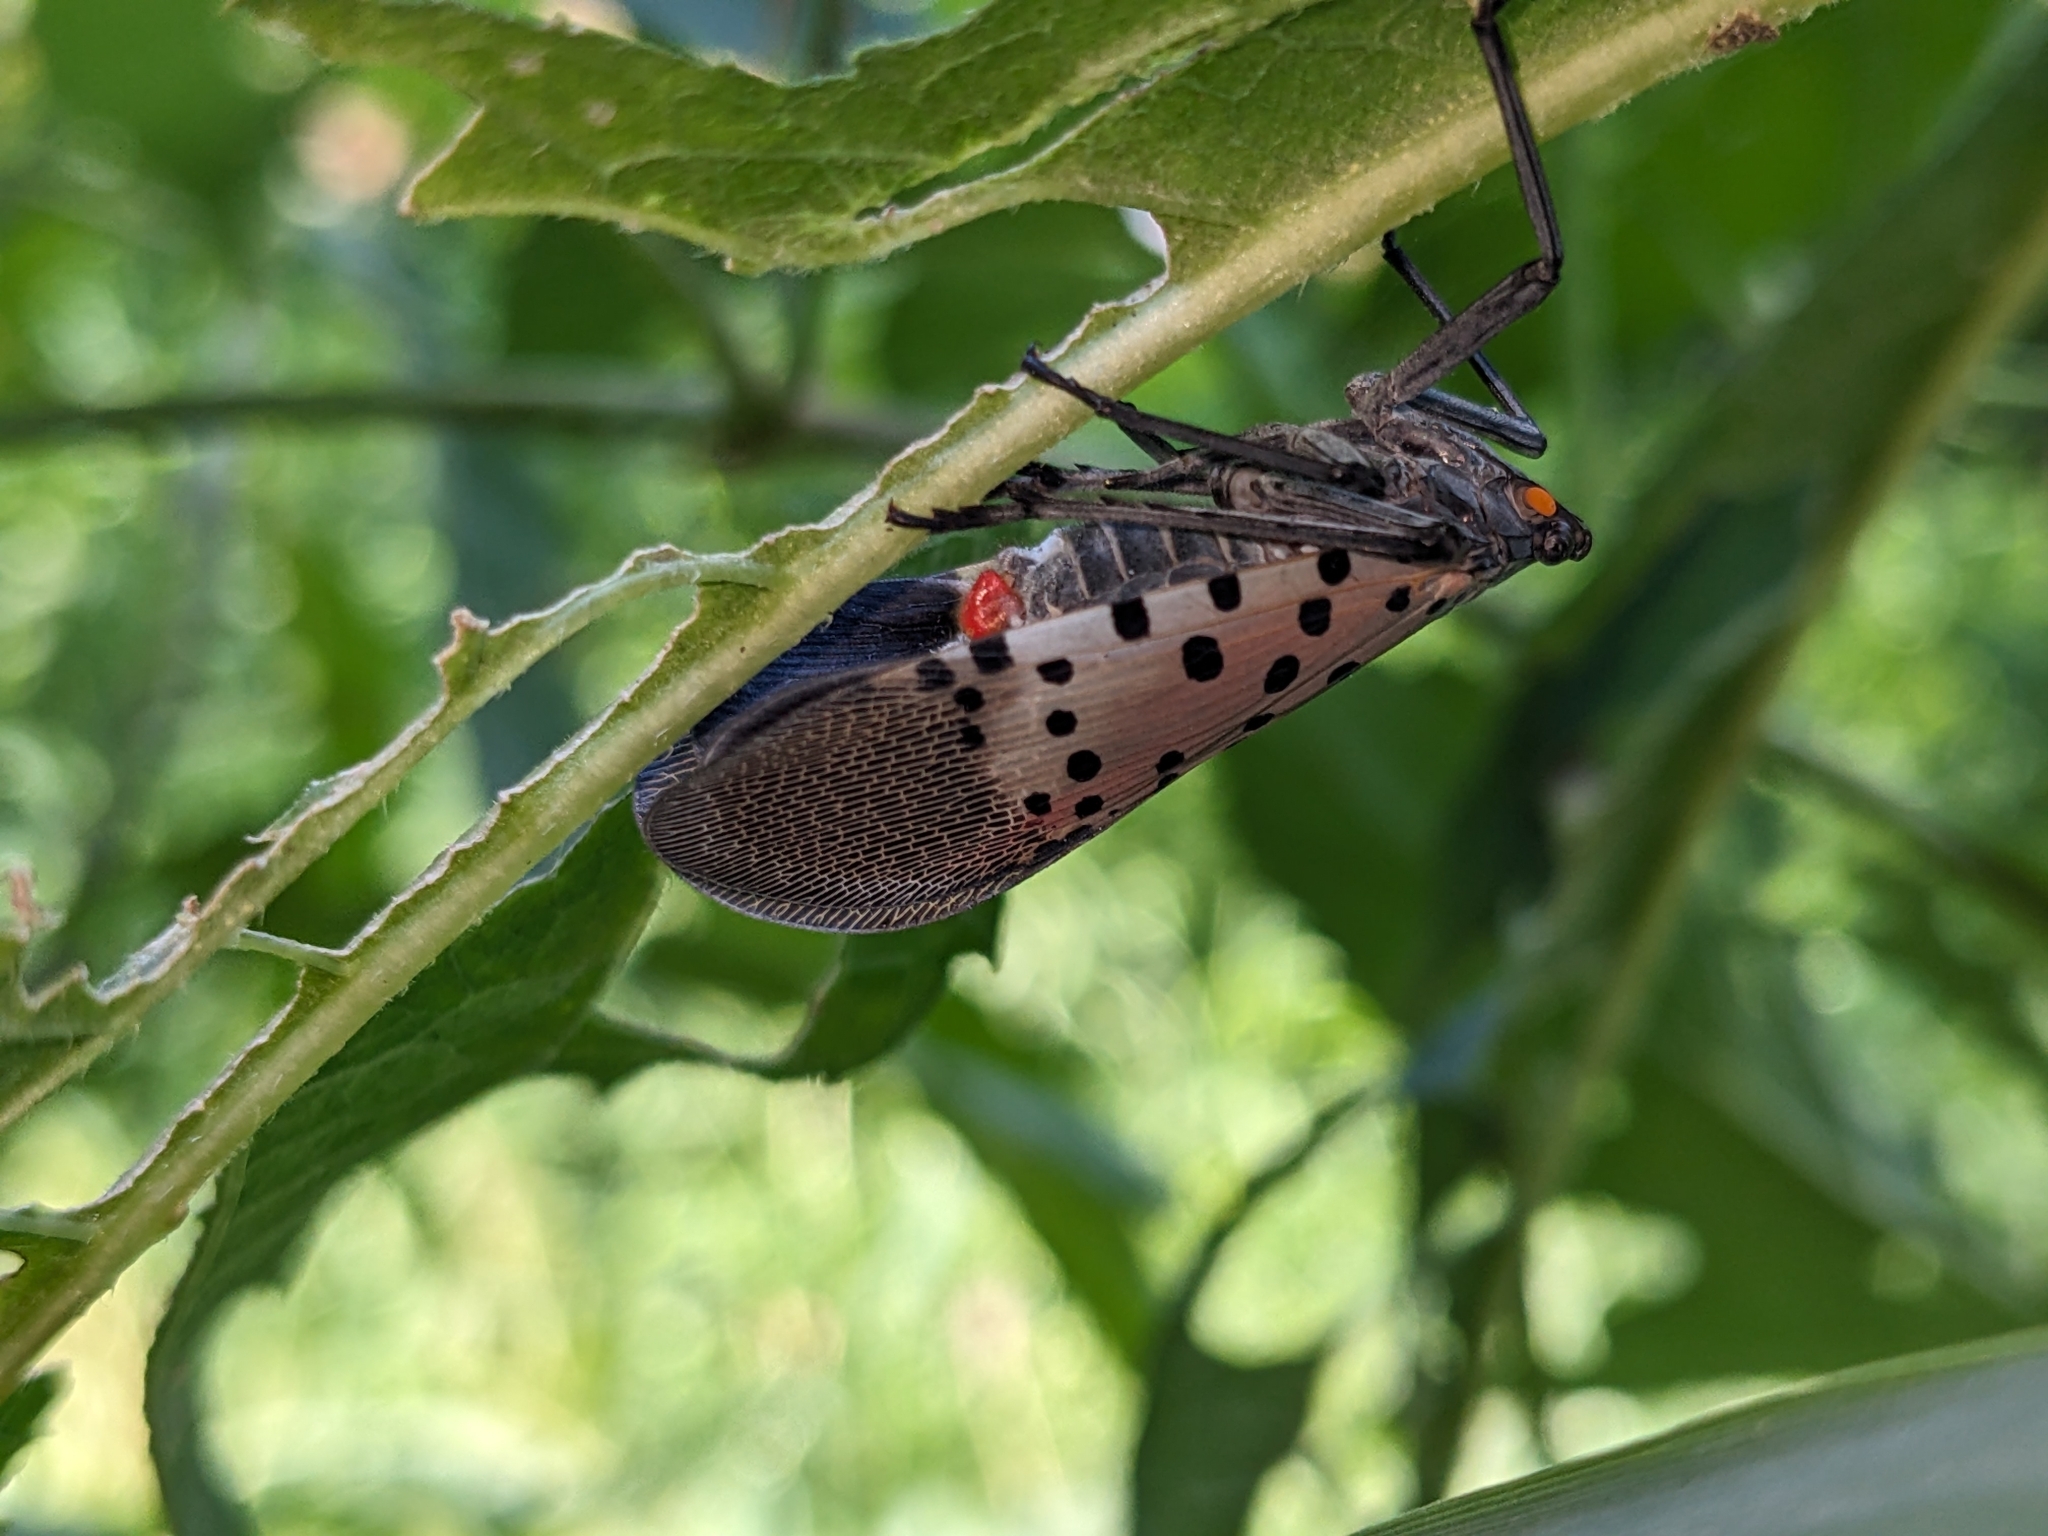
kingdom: Animalia
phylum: Arthropoda
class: Insecta
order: Hemiptera
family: Fulgoridae
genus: Lycorma
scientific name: Lycorma delicatula
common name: Spotted lanternfly
